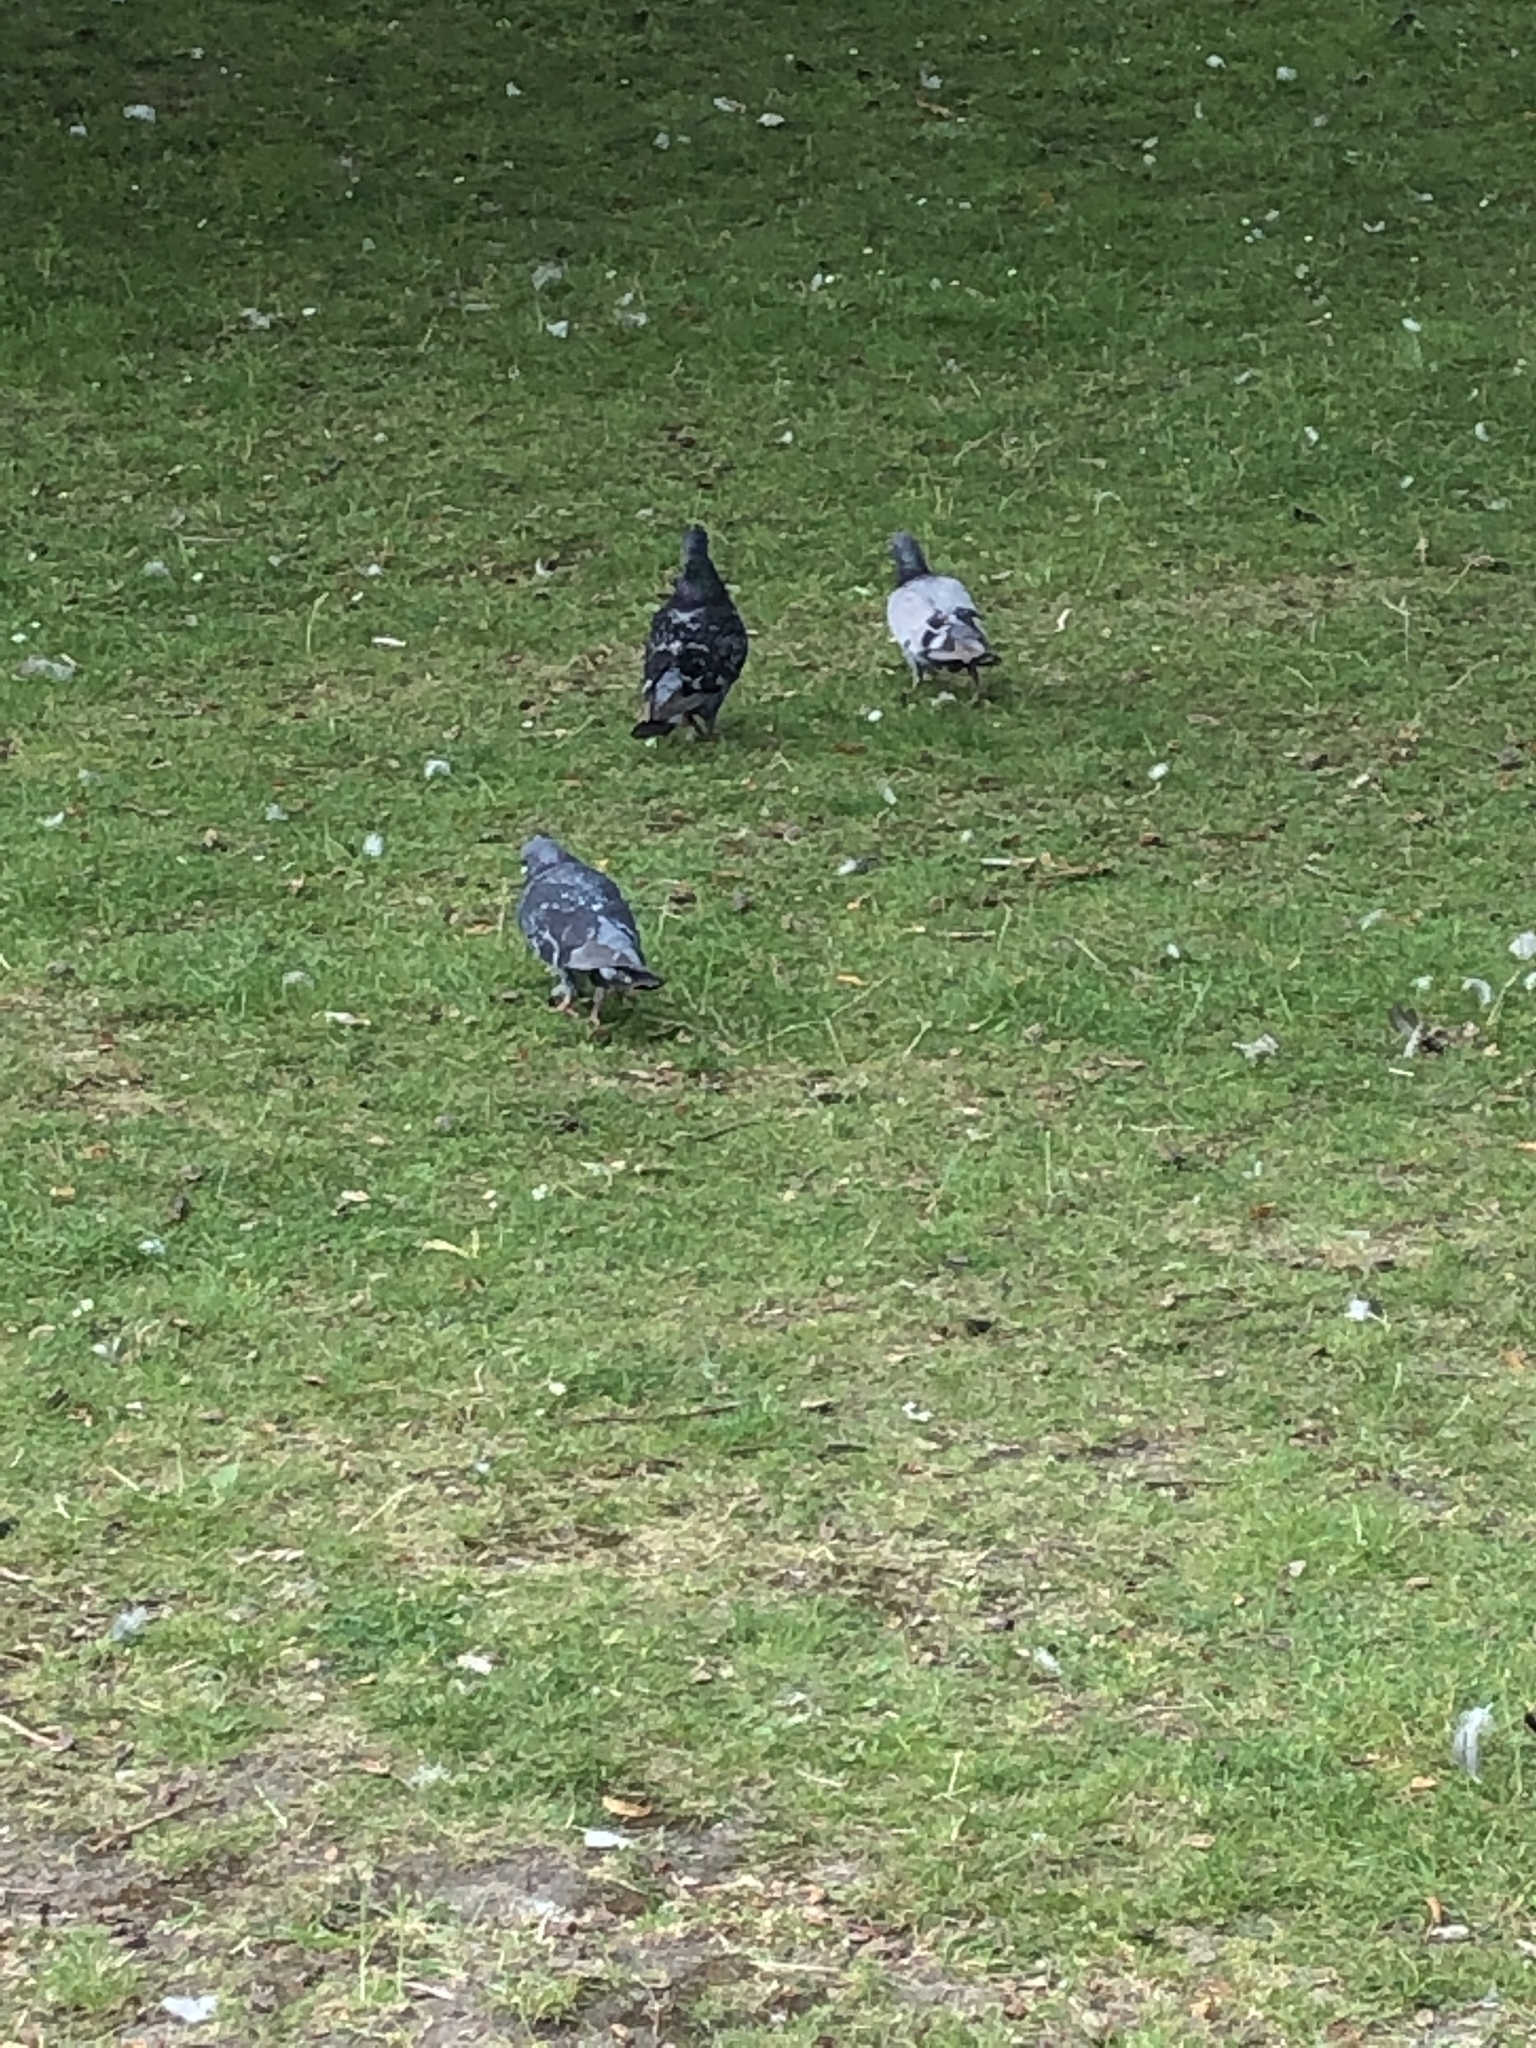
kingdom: Animalia
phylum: Chordata
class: Aves
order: Columbiformes
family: Columbidae
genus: Columba
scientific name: Columba livia
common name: Rock pigeon
